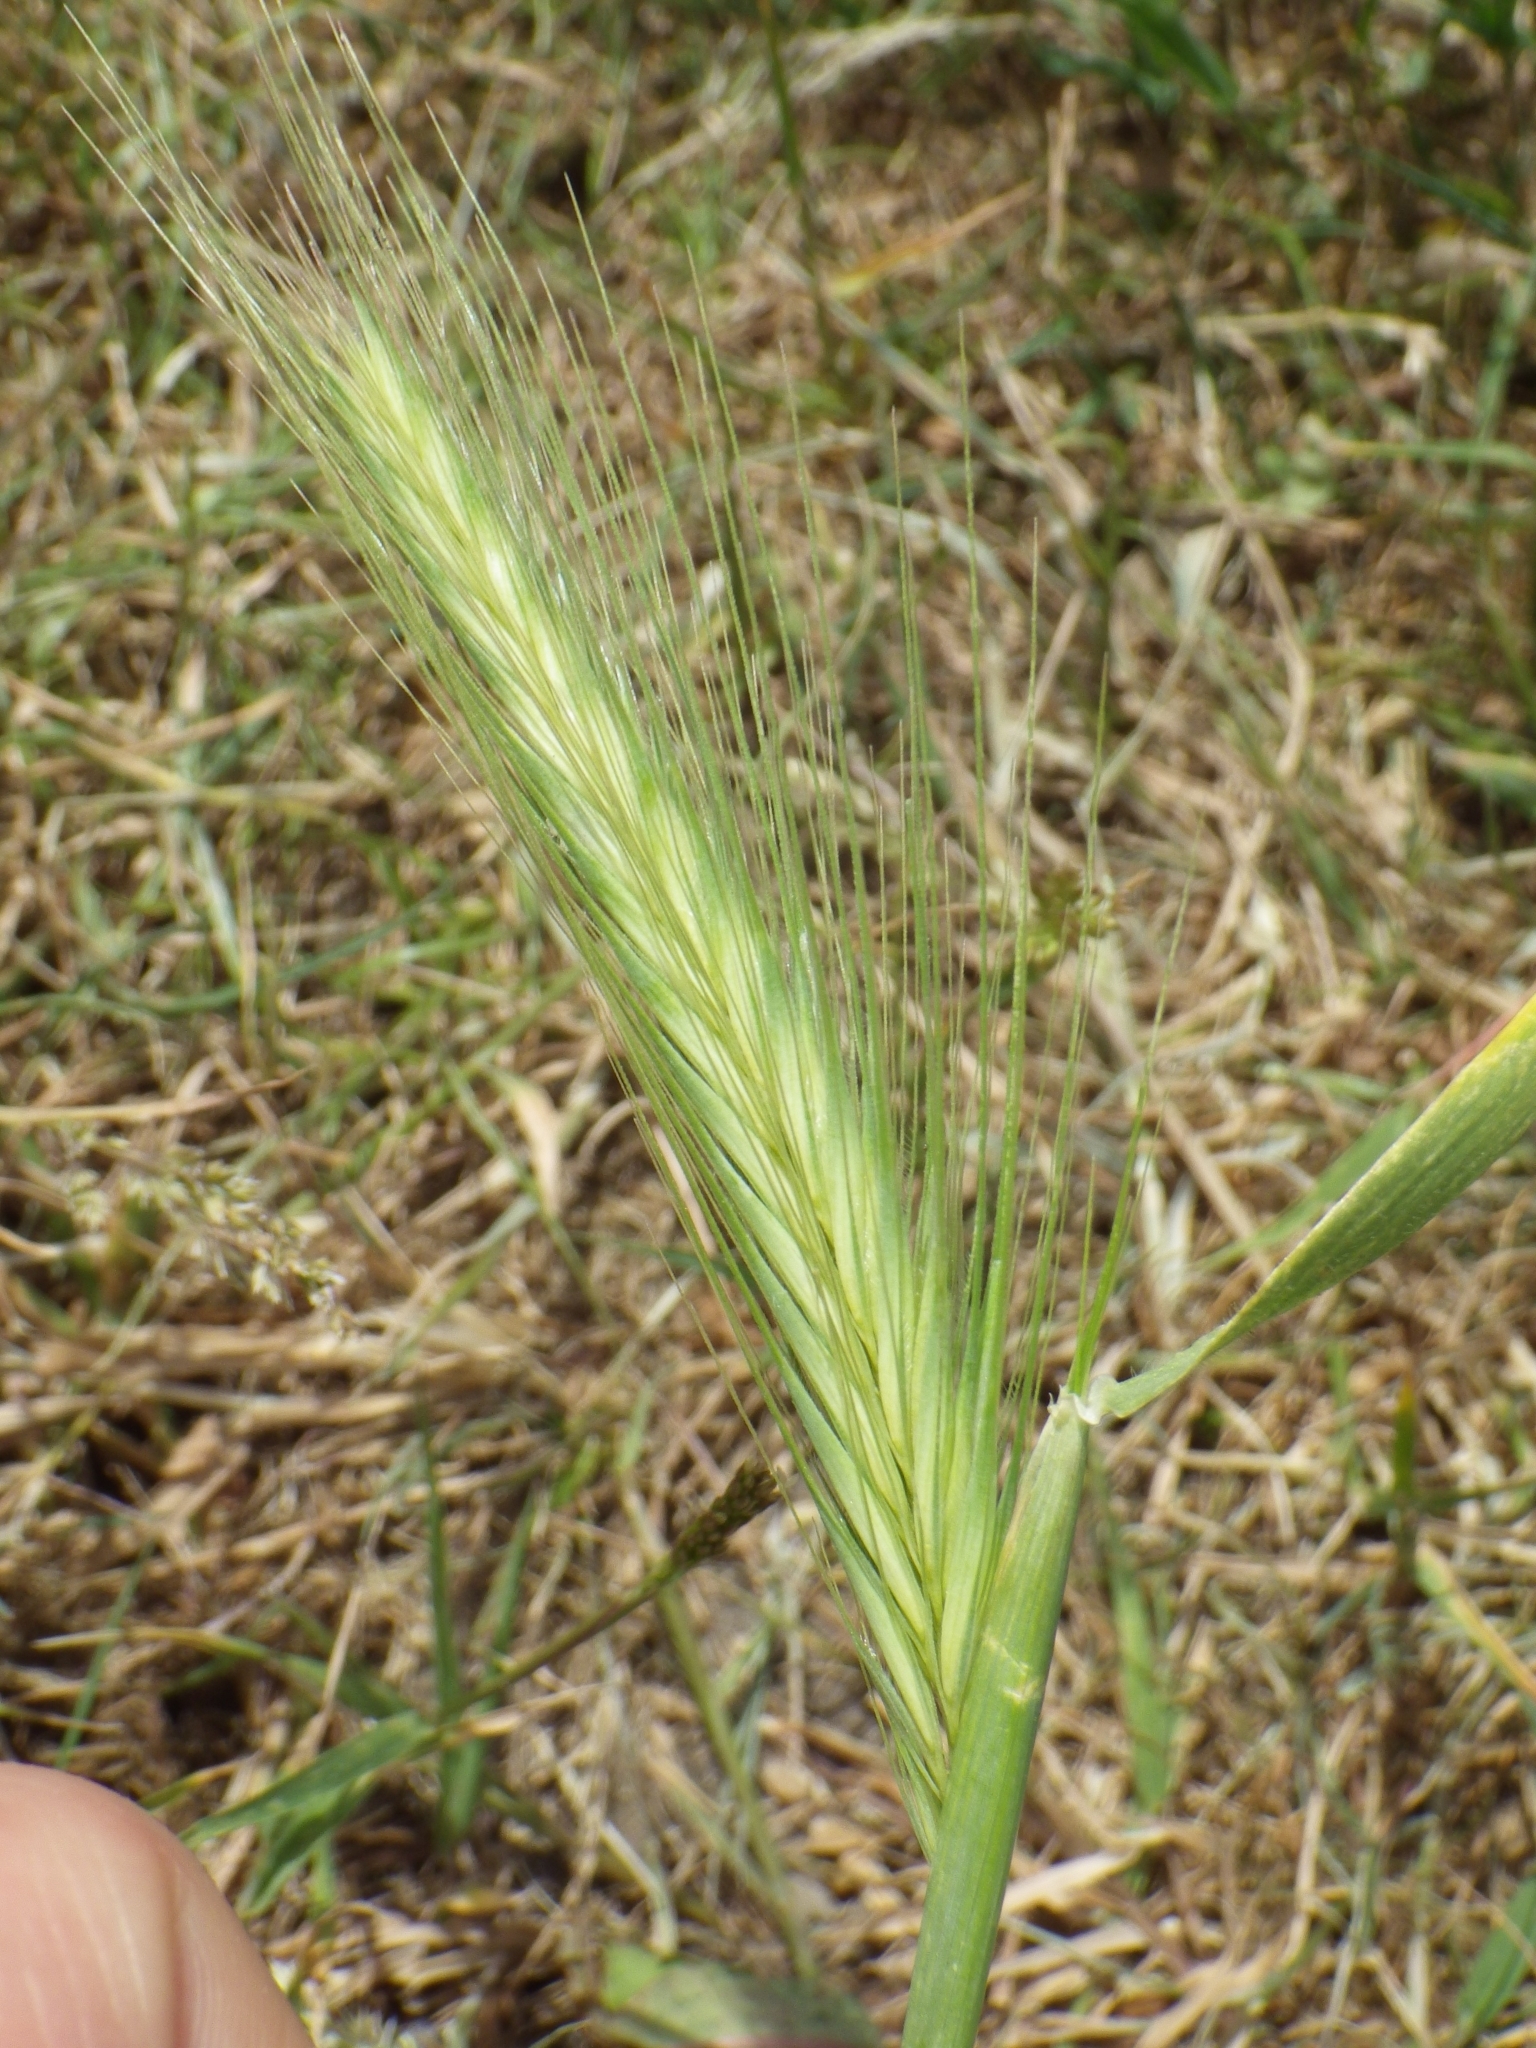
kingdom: Plantae
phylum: Tracheophyta
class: Liliopsida
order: Poales
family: Poaceae
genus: Hordeum
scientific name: Hordeum murinum
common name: Wall barley
